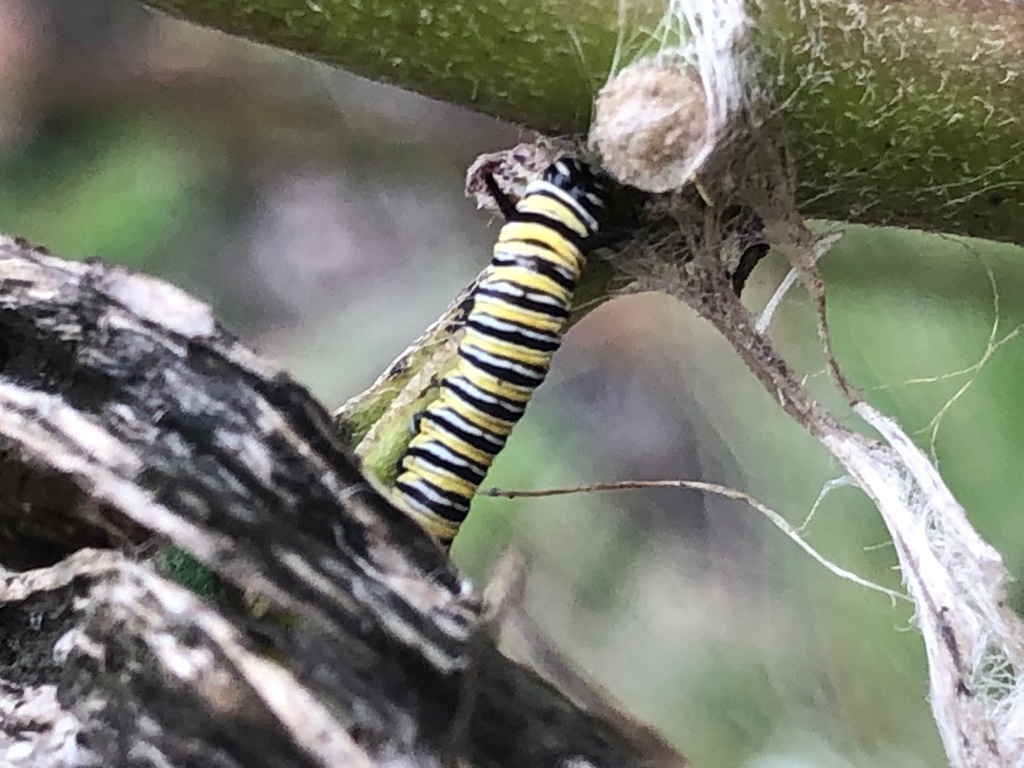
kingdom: Animalia
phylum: Arthropoda
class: Insecta
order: Lepidoptera
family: Nymphalidae
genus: Danaus
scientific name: Danaus plexippus
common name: Monarch
